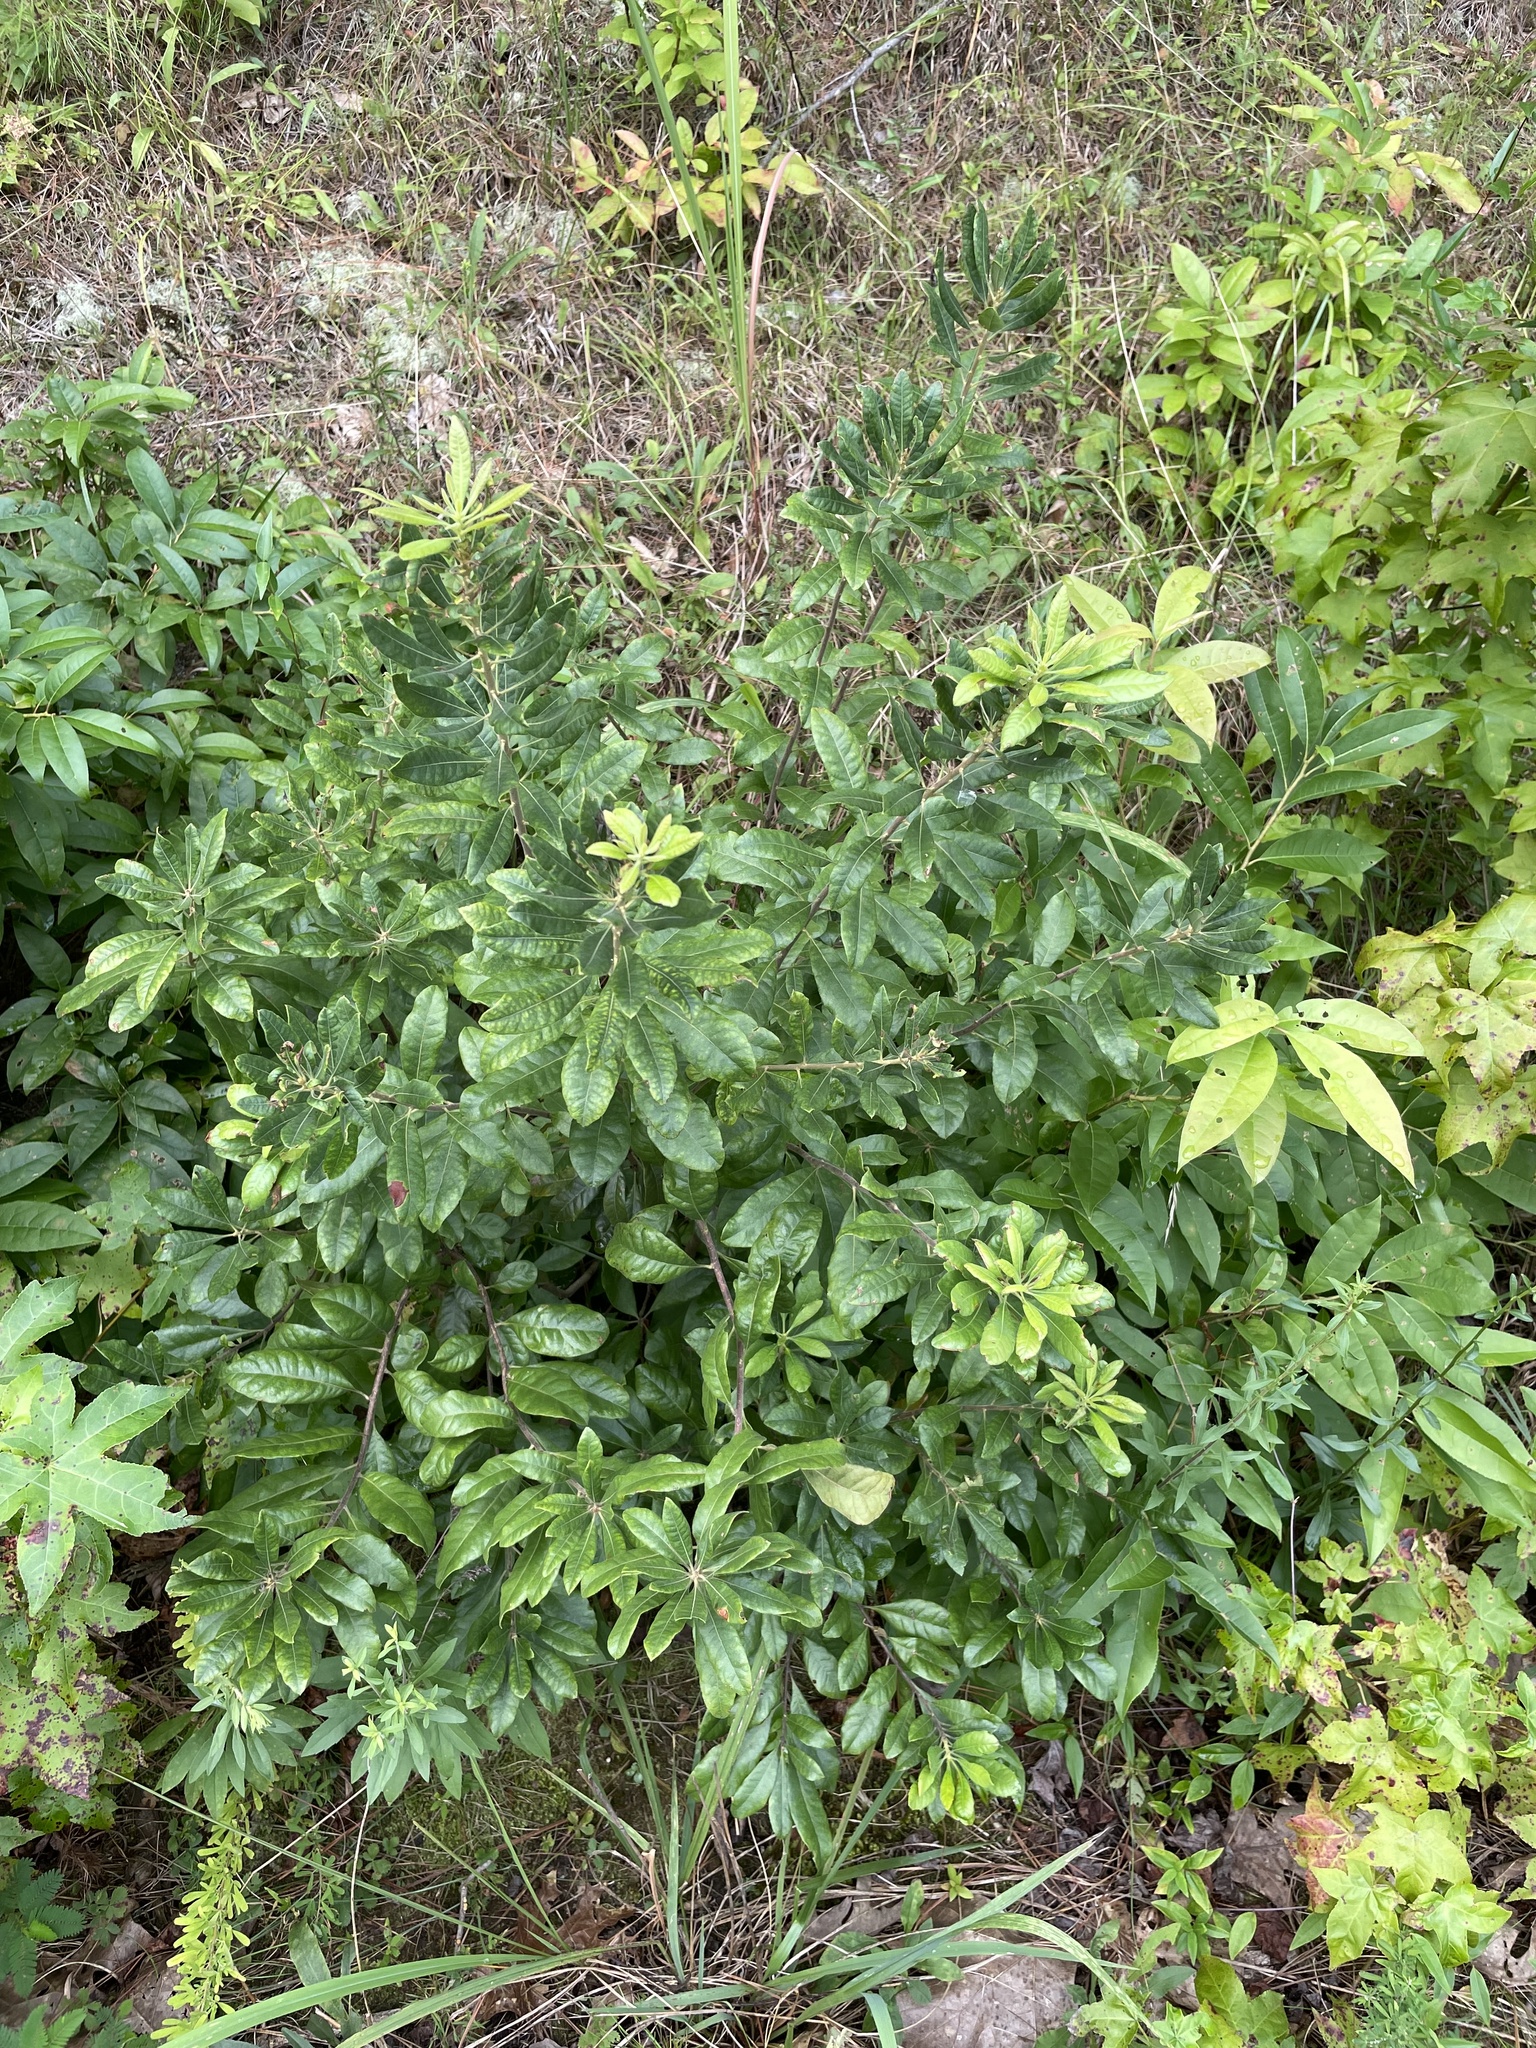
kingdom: Plantae
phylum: Tracheophyta
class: Magnoliopsida
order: Fagales
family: Myricaceae
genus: Morella
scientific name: Morella cerifera
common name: Wax myrtle
